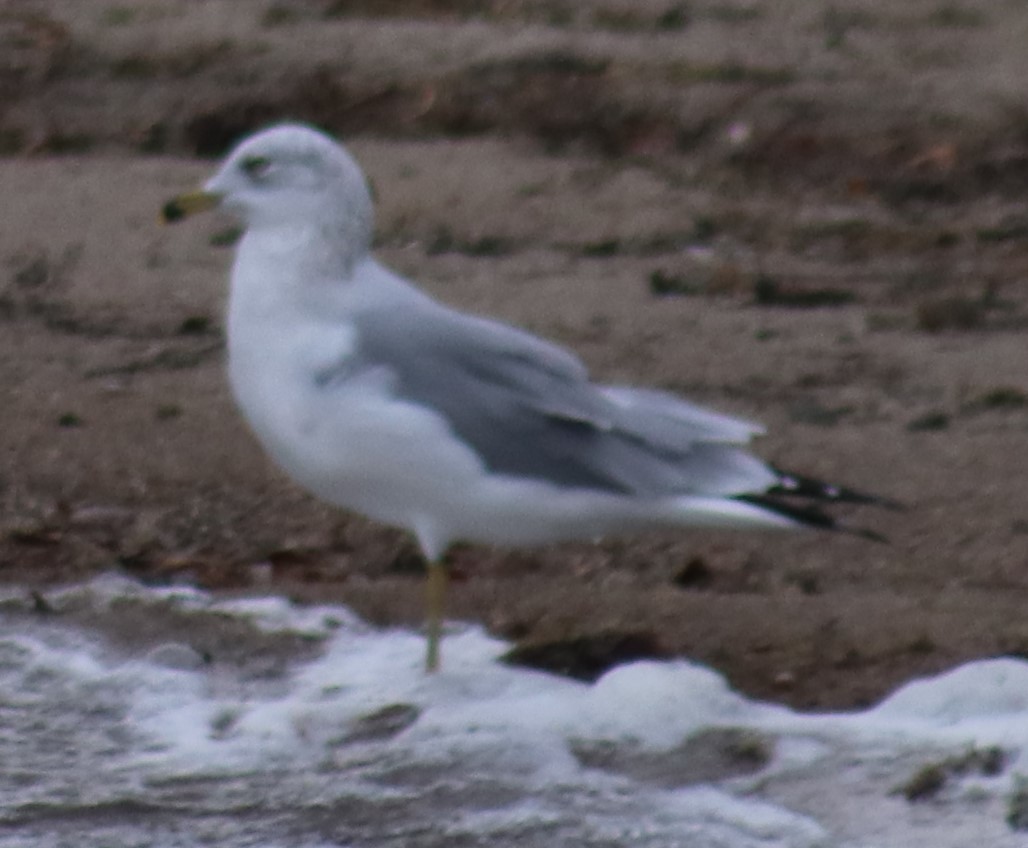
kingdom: Animalia
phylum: Chordata
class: Aves
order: Charadriiformes
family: Laridae
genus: Larus
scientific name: Larus delawarensis
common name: Ring-billed gull
